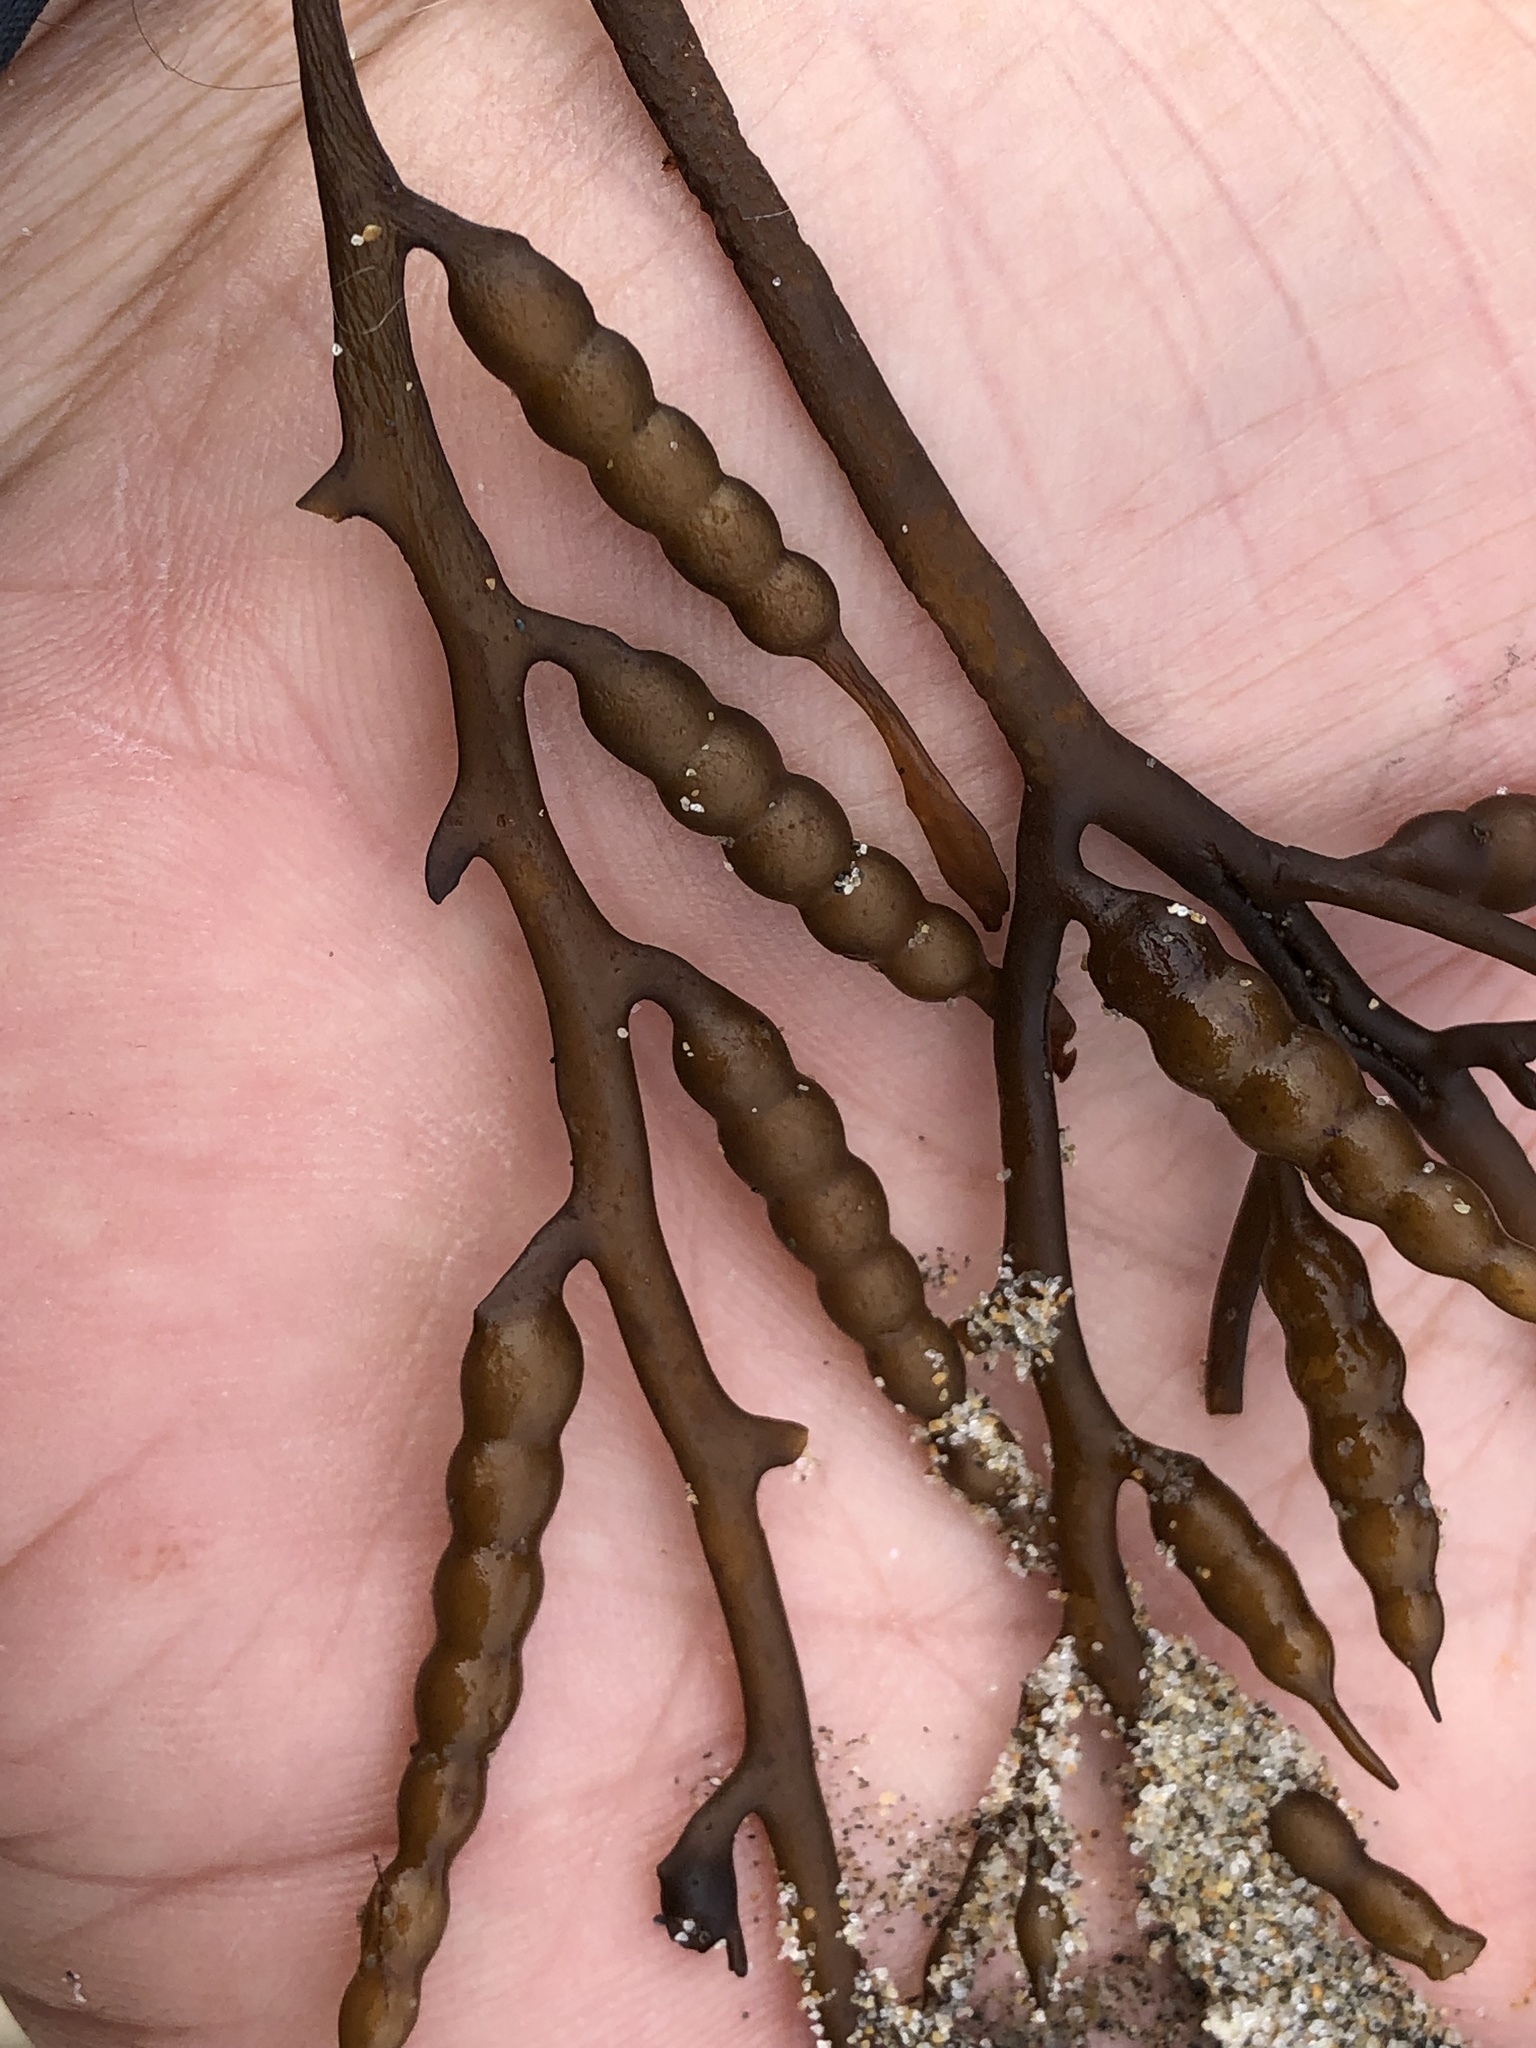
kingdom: Chromista
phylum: Ochrophyta
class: Phaeophyceae
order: Fucales
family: Sargassaceae
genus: Stephanocystis
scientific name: Stephanocystis
